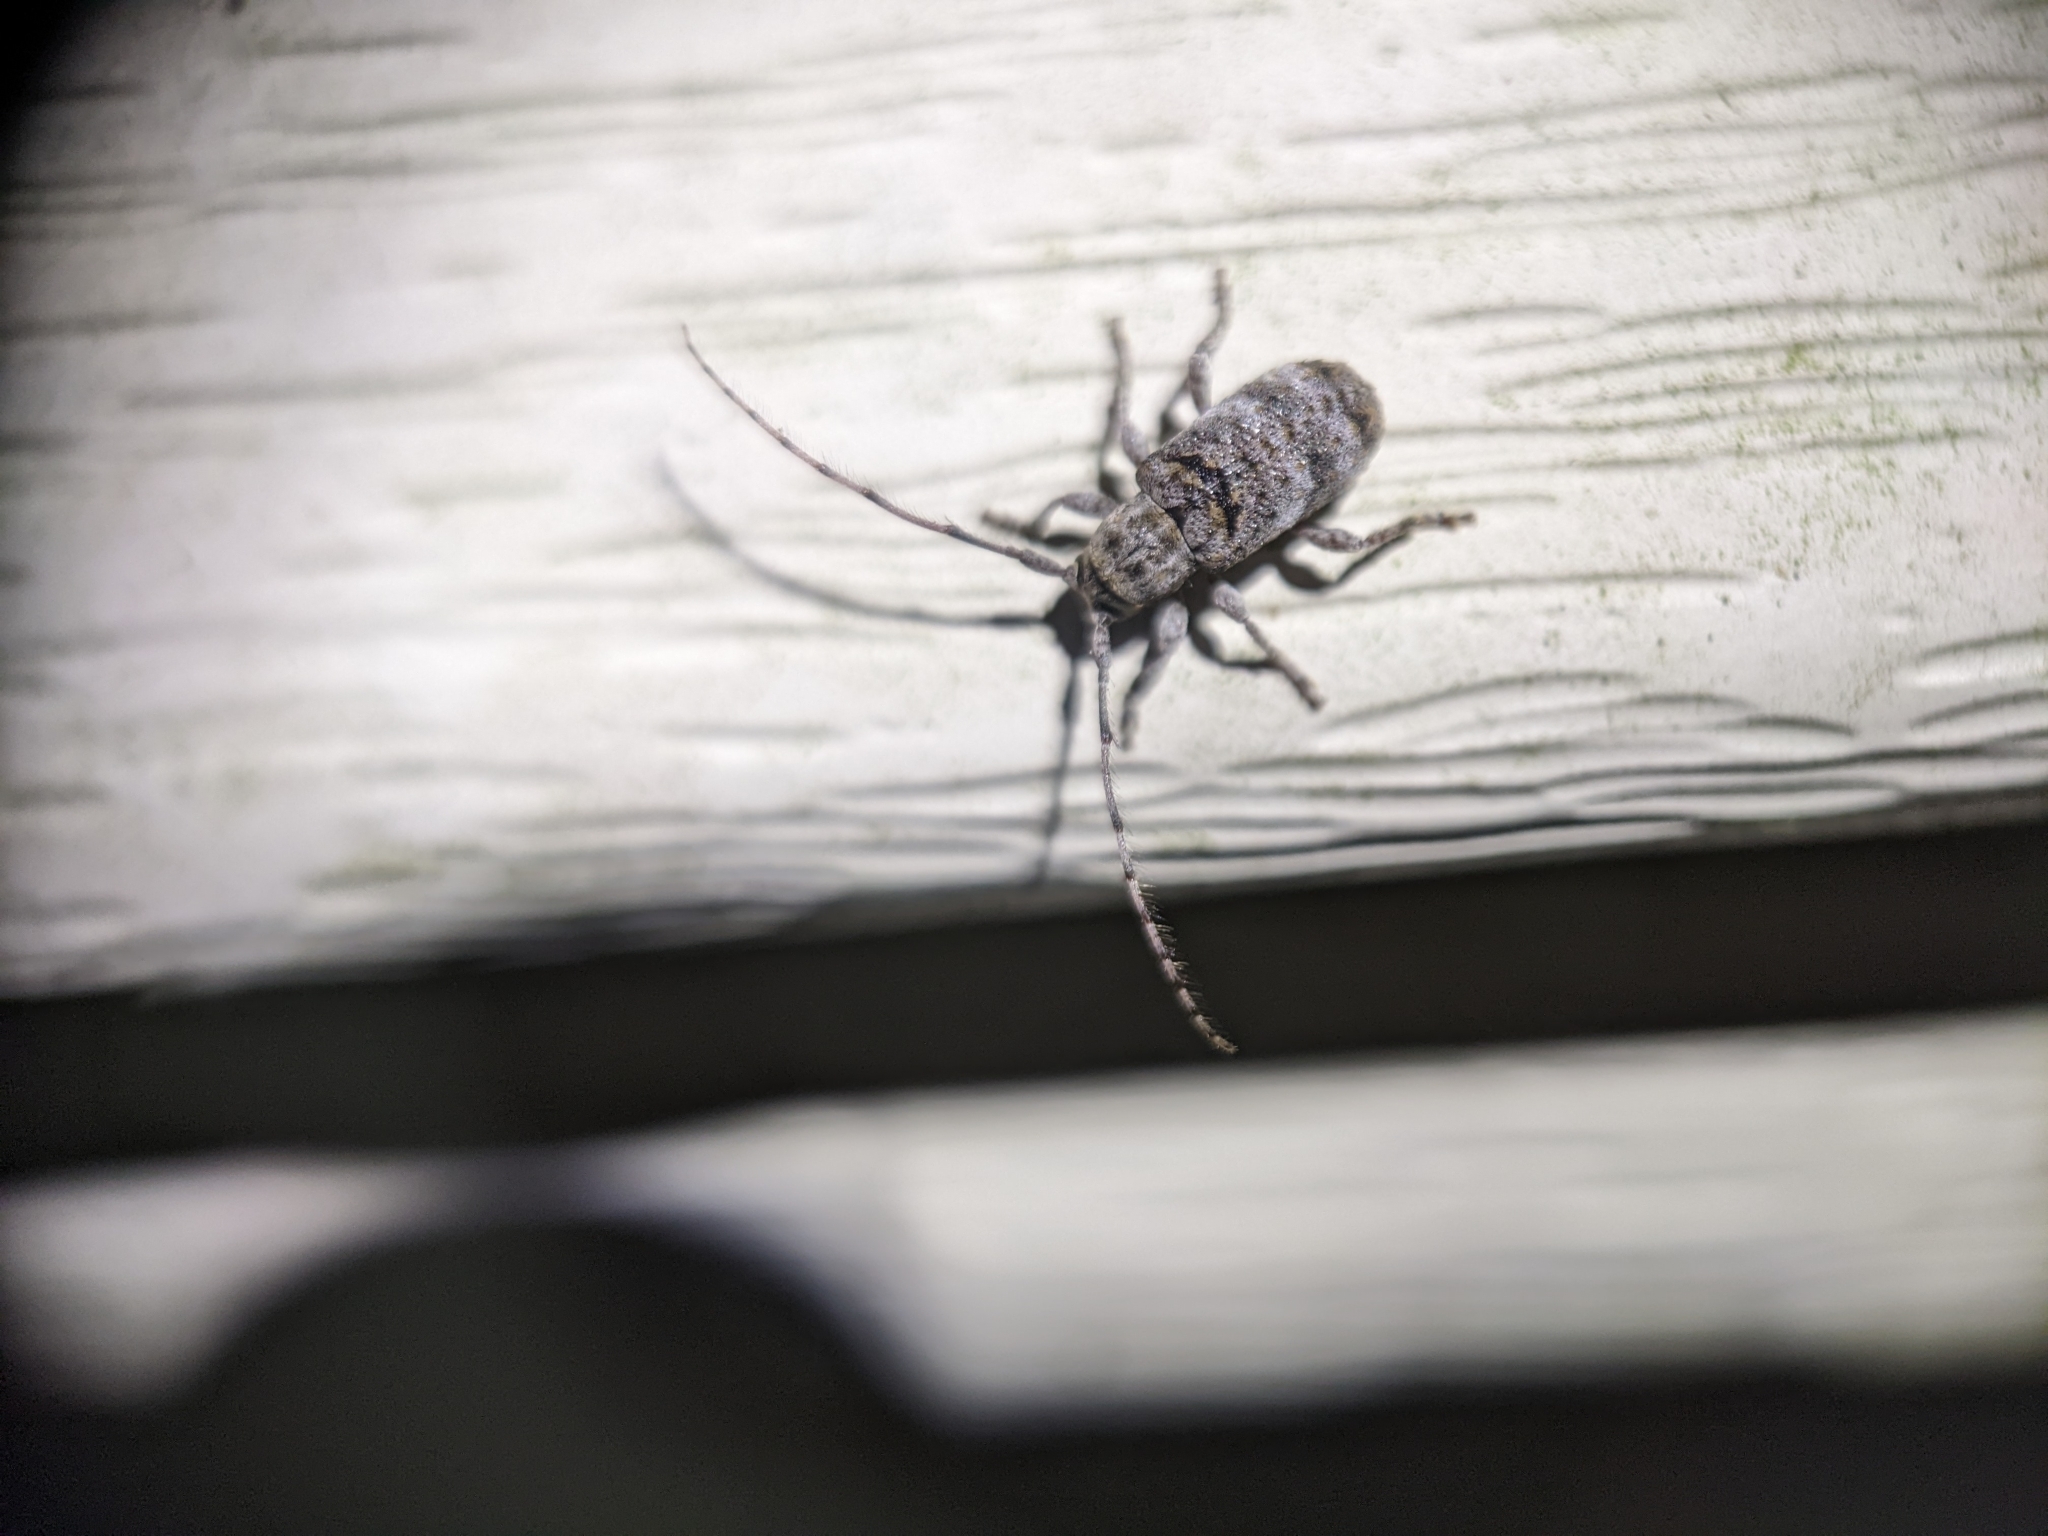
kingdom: Animalia
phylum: Arthropoda
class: Insecta
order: Coleoptera
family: Cerambycidae
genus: Ecyrus
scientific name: Ecyrus dasycerus
